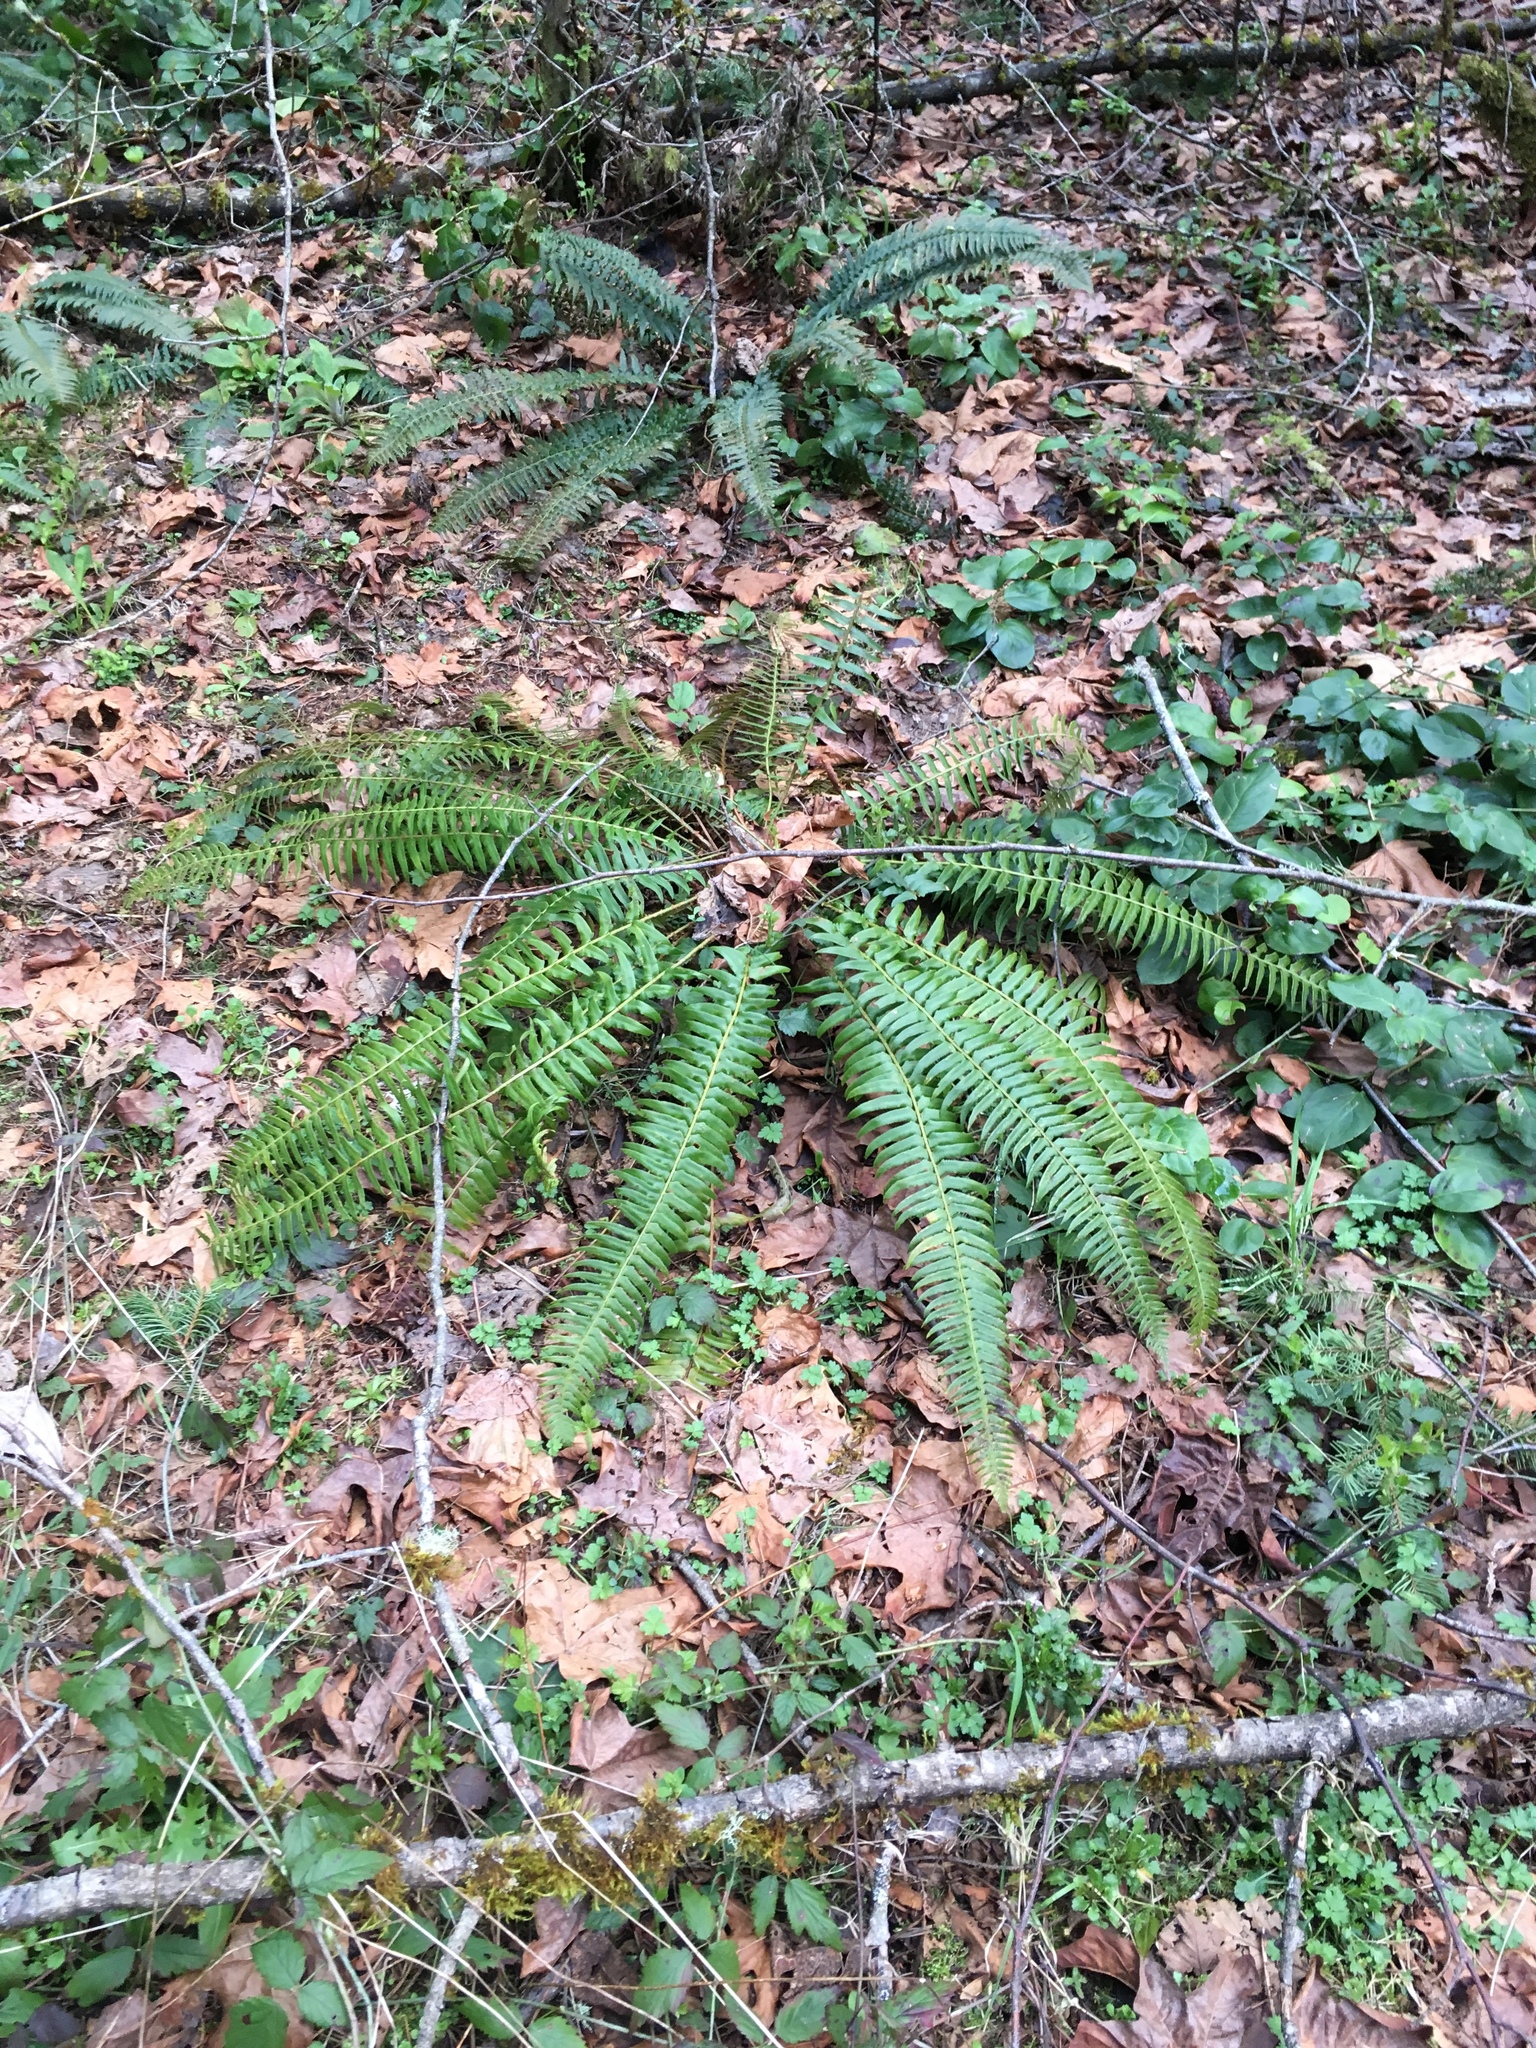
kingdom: Plantae
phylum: Tracheophyta
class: Polypodiopsida
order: Polypodiales
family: Dryopteridaceae
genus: Polystichum
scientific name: Polystichum munitum
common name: Western sword-fern
